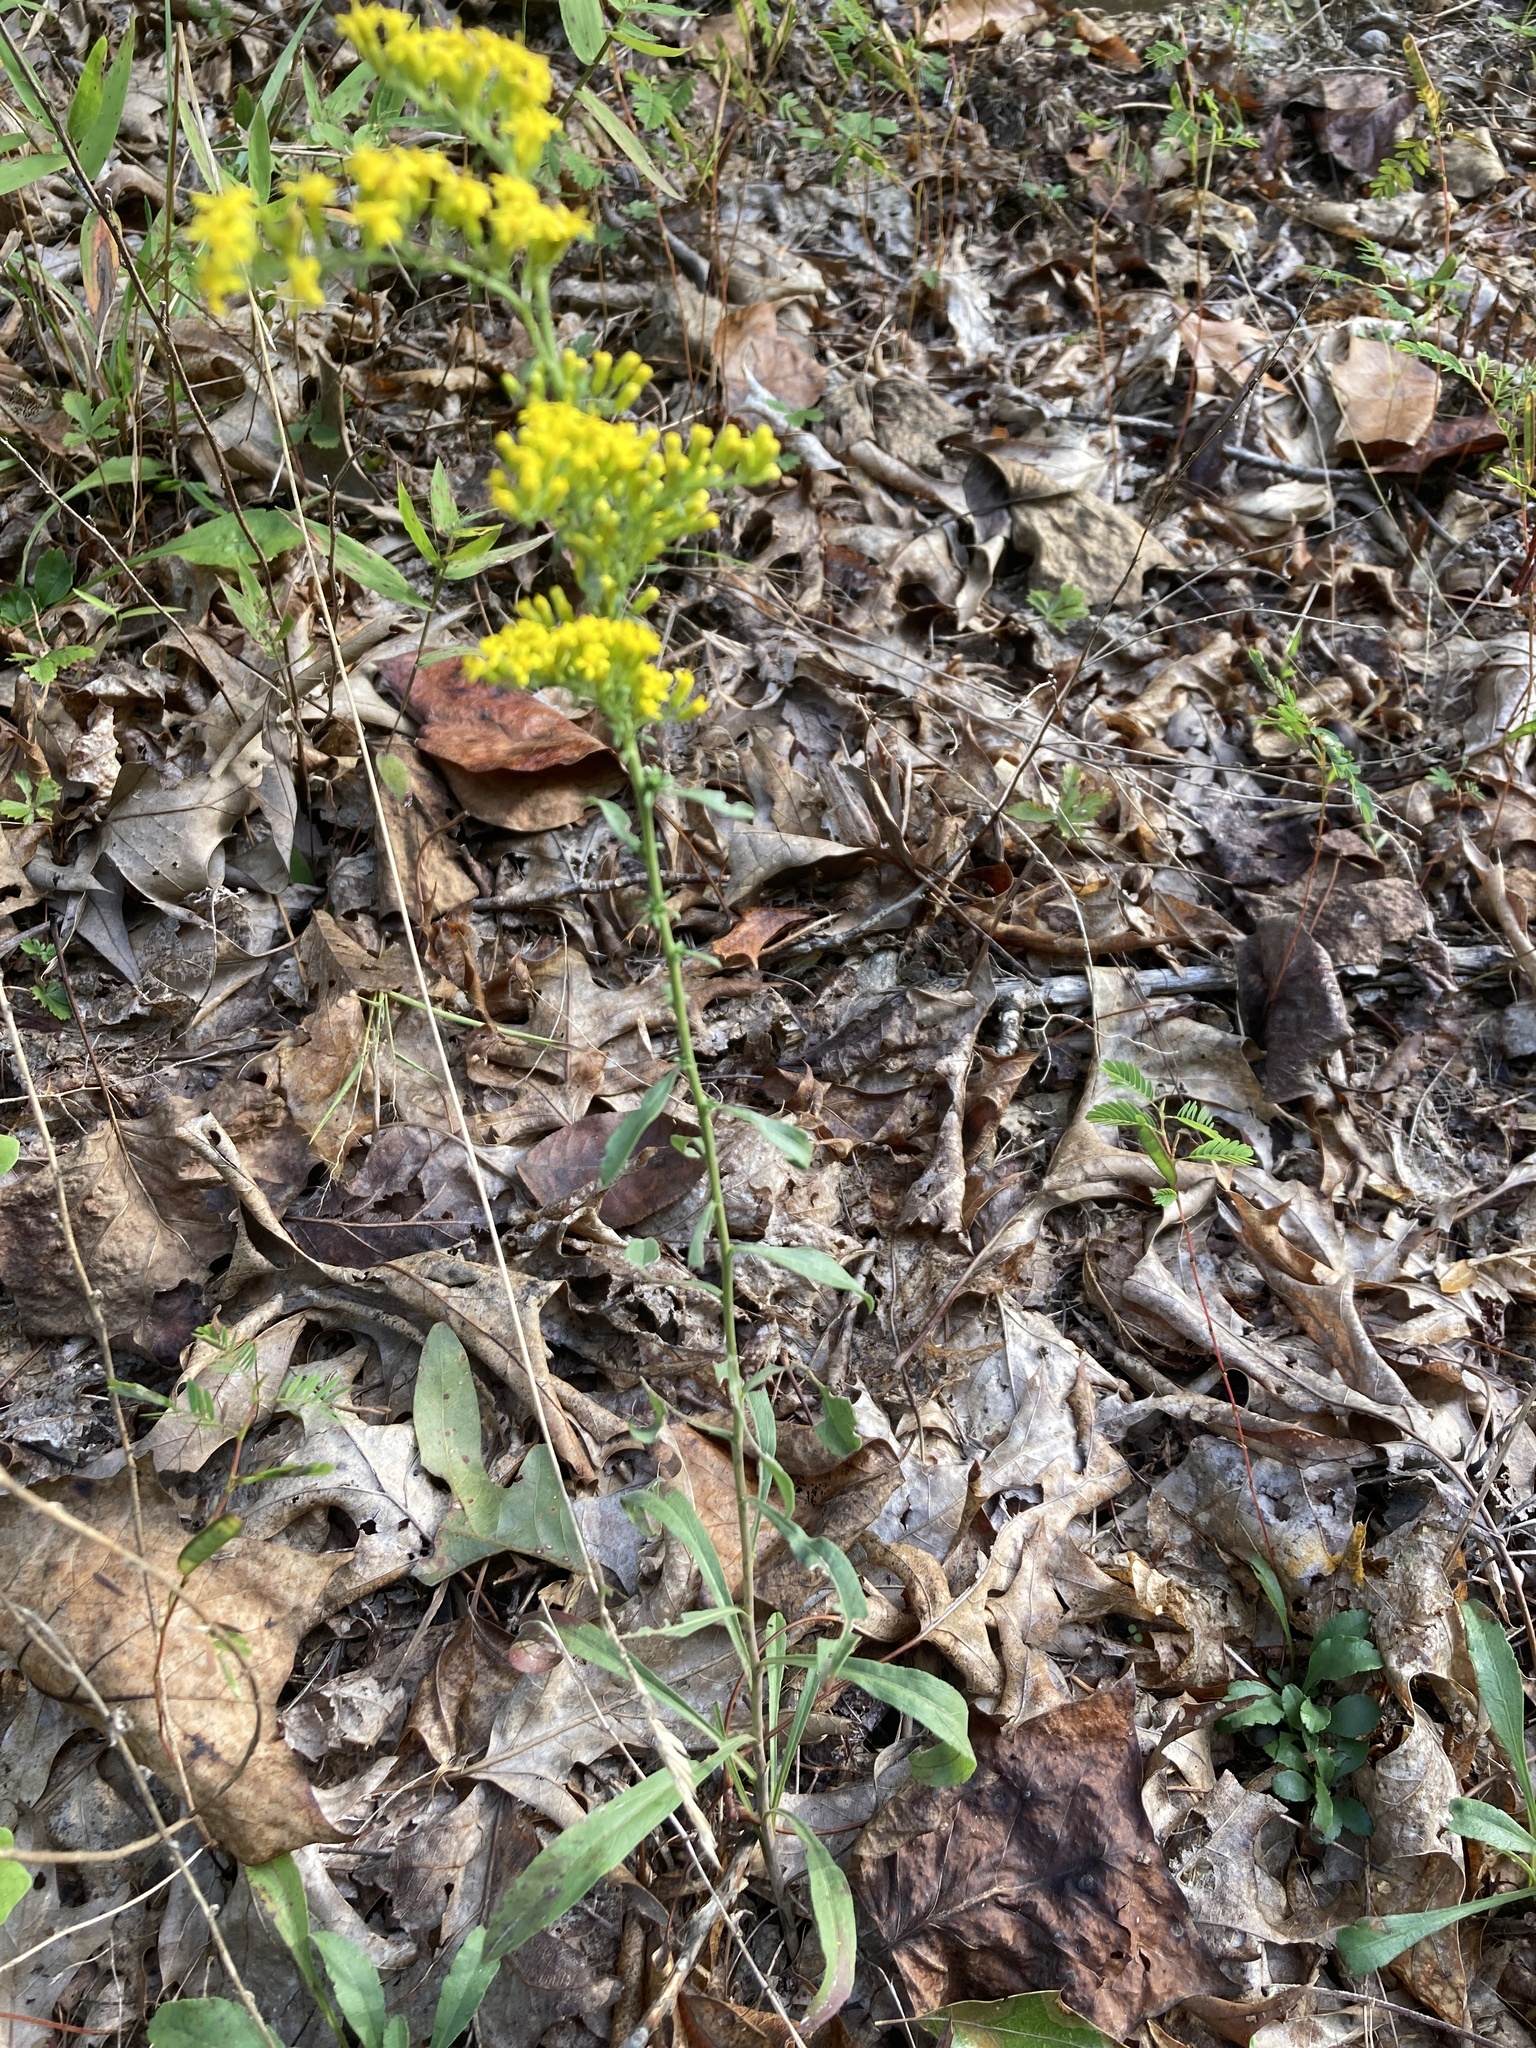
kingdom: Plantae
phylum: Tracheophyta
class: Magnoliopsida
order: Asterales
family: Asteraceae
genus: Solidago
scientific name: Solidago nemoralis
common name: Grey goldenrod
